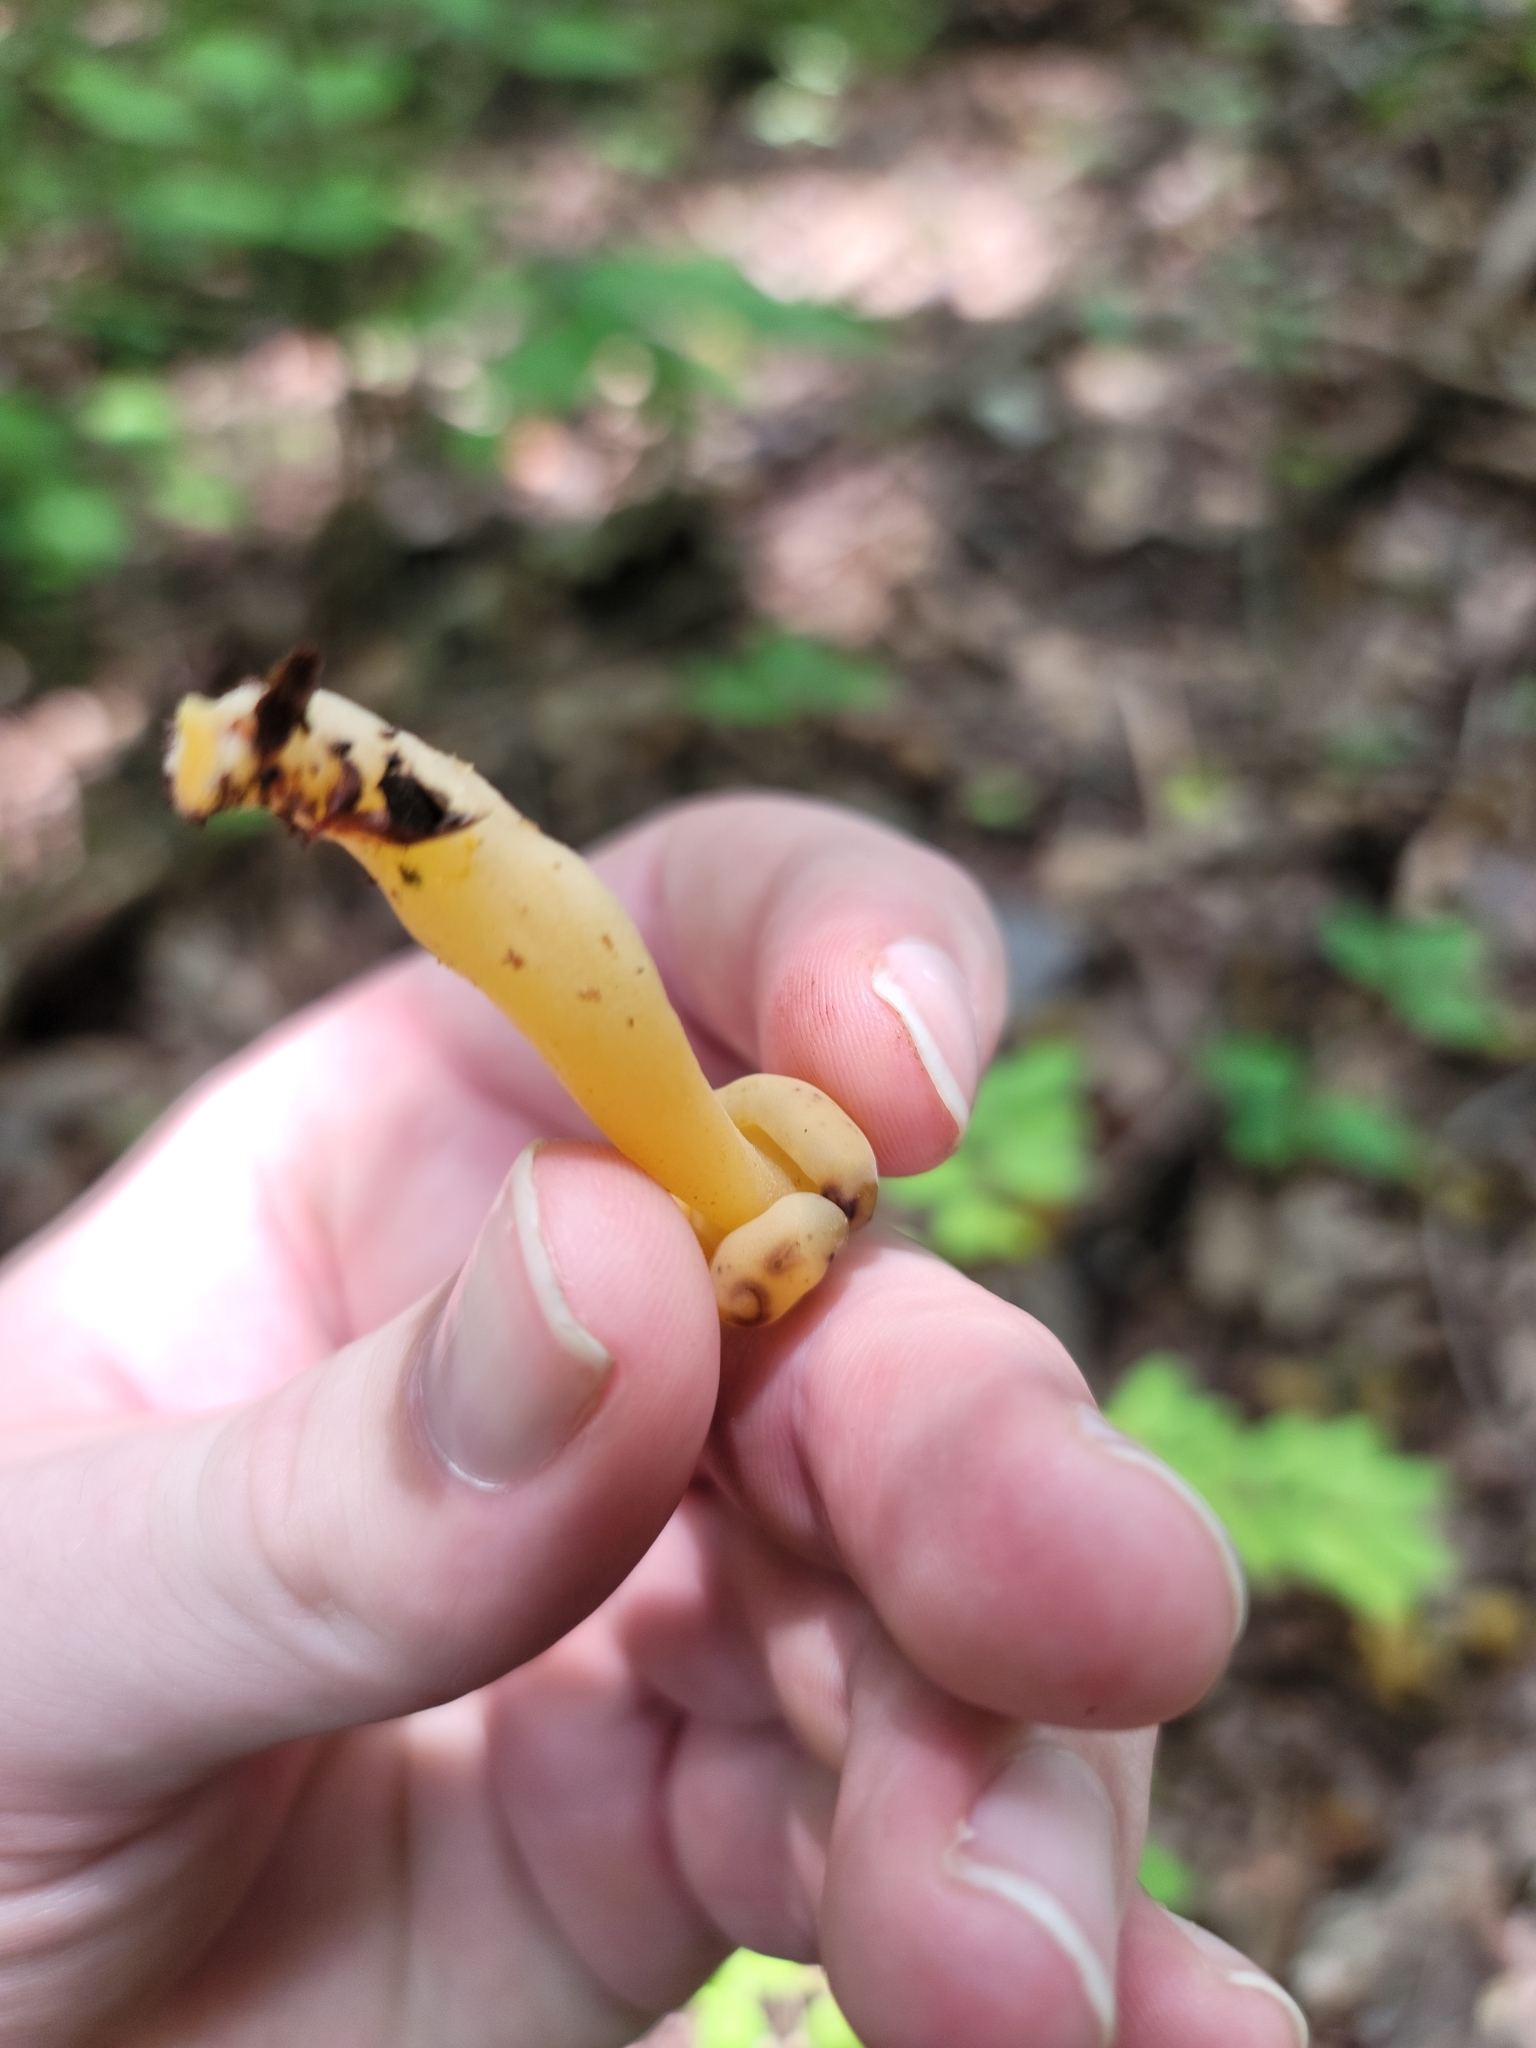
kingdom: Fungi
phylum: Ascomycota
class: Leotiomycetes
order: Leotiales
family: Leotiaceae
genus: Leotia
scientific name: Leotia lubrica
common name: Jellybaby
